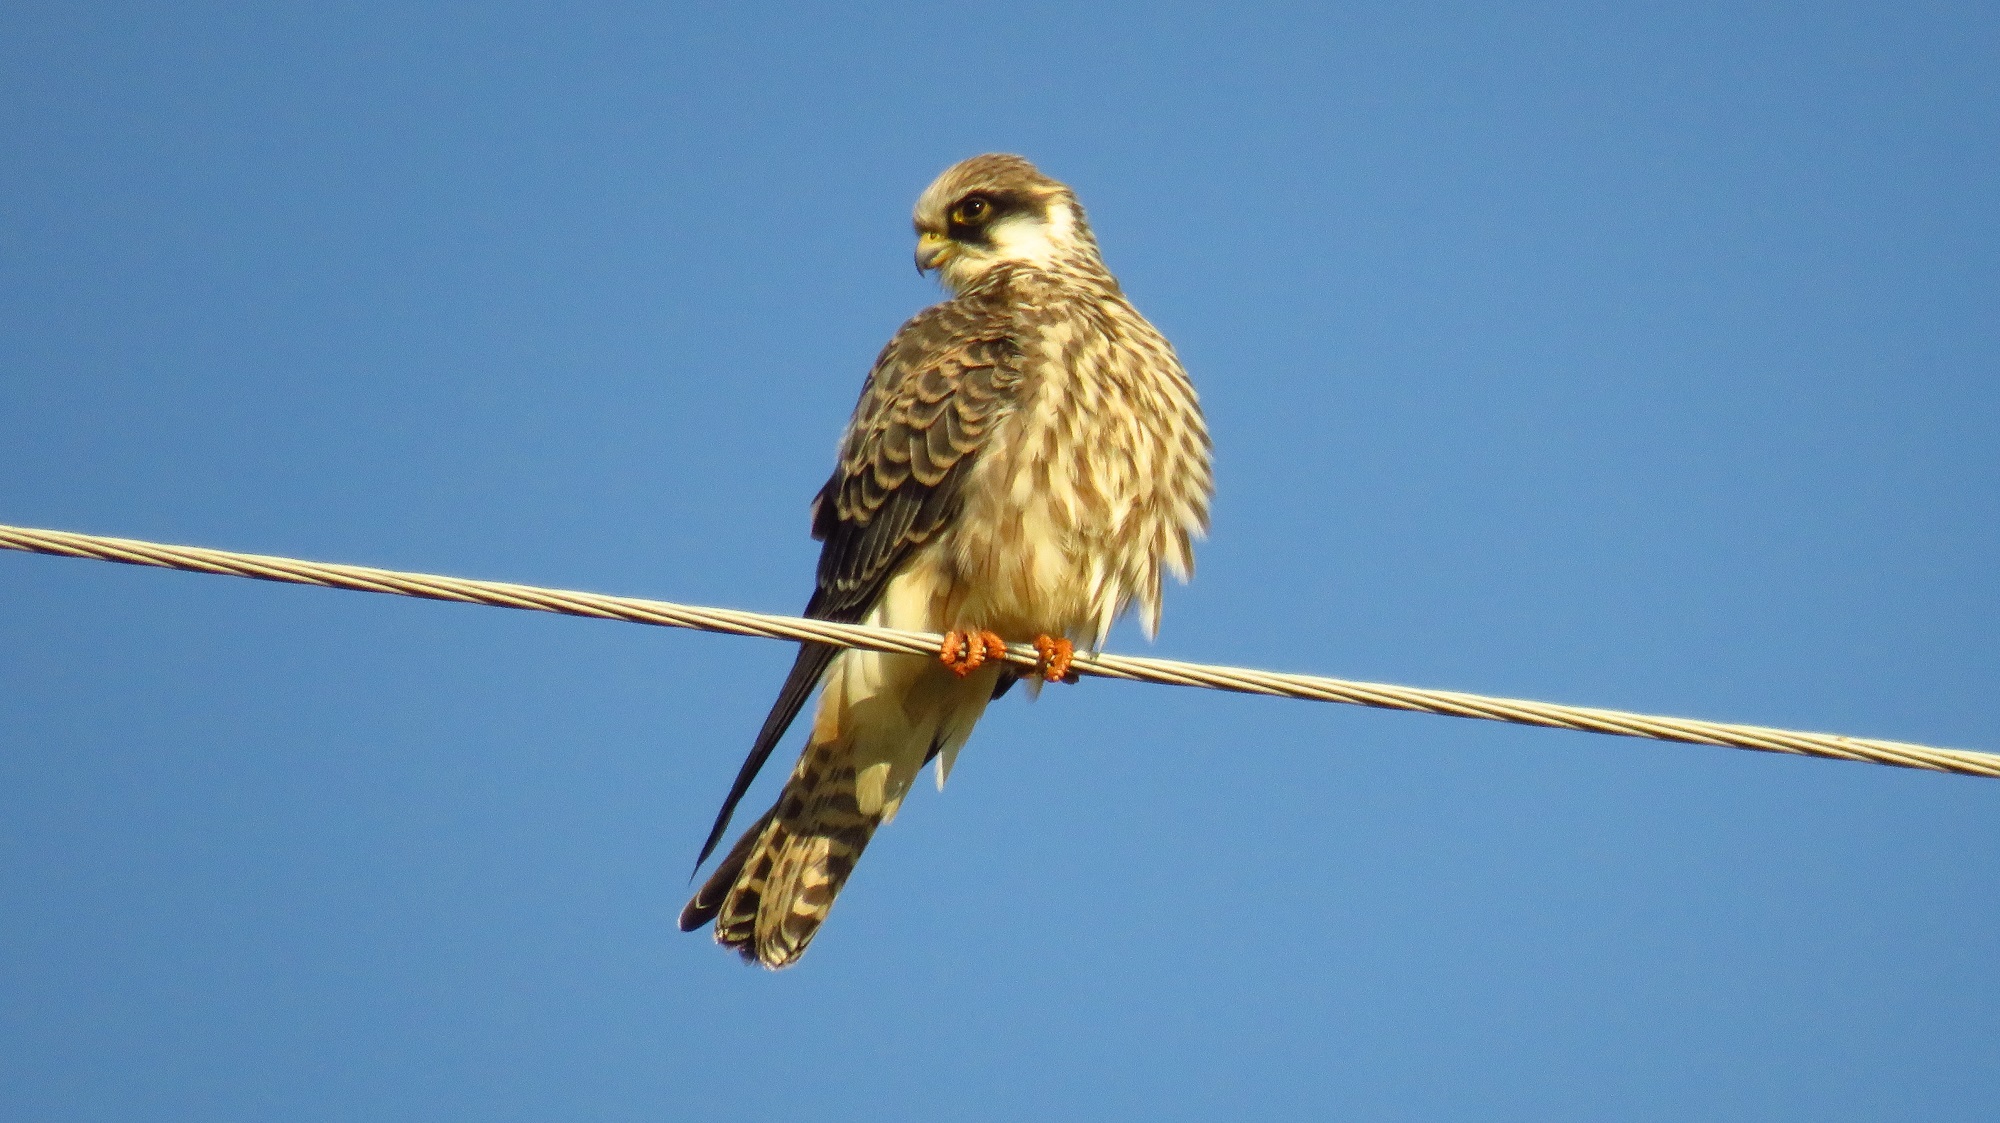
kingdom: Animalia
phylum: Chordata
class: Aves
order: Falconiformes
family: Falconidae
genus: Falco
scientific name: Falco vespertinus
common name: Red-footed falcon
